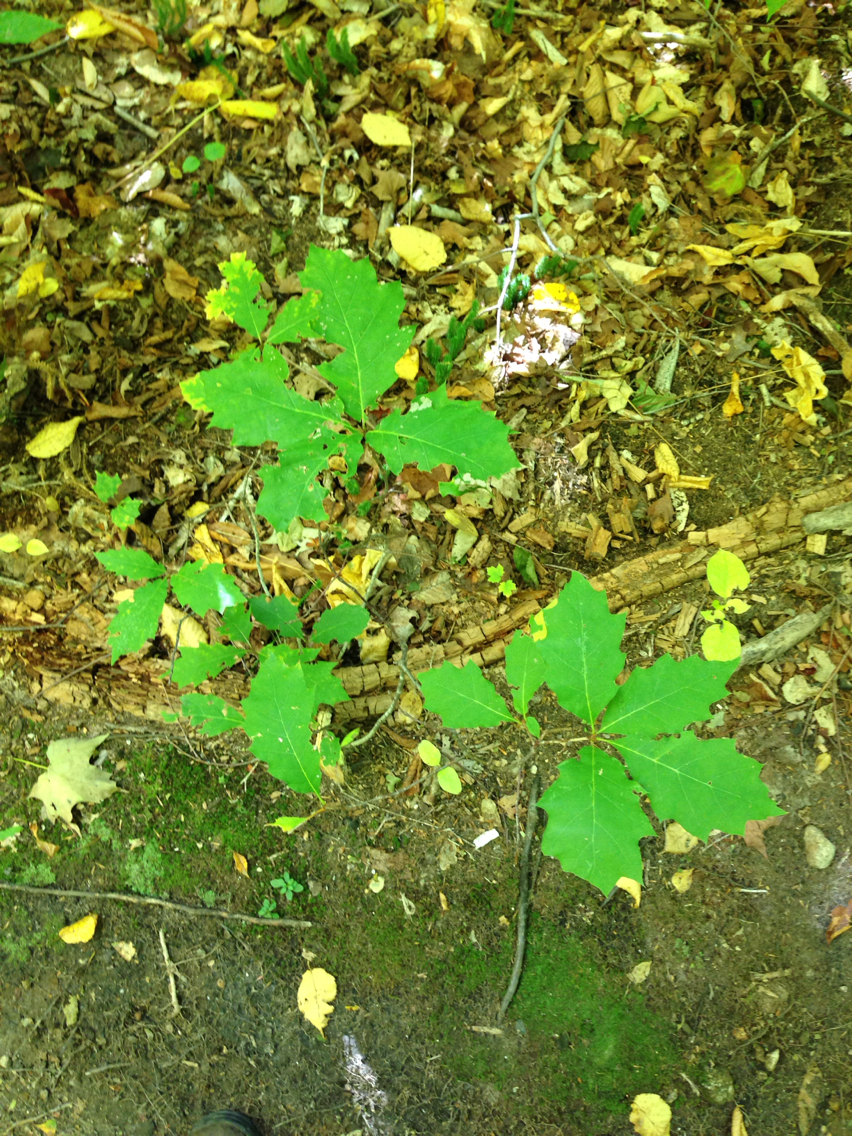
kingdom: Plantae
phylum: Tracheophyta
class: Magnoliopsida
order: Fagales
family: Fagaceae
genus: Quercus
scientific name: Quercus rubra
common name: Red oak
